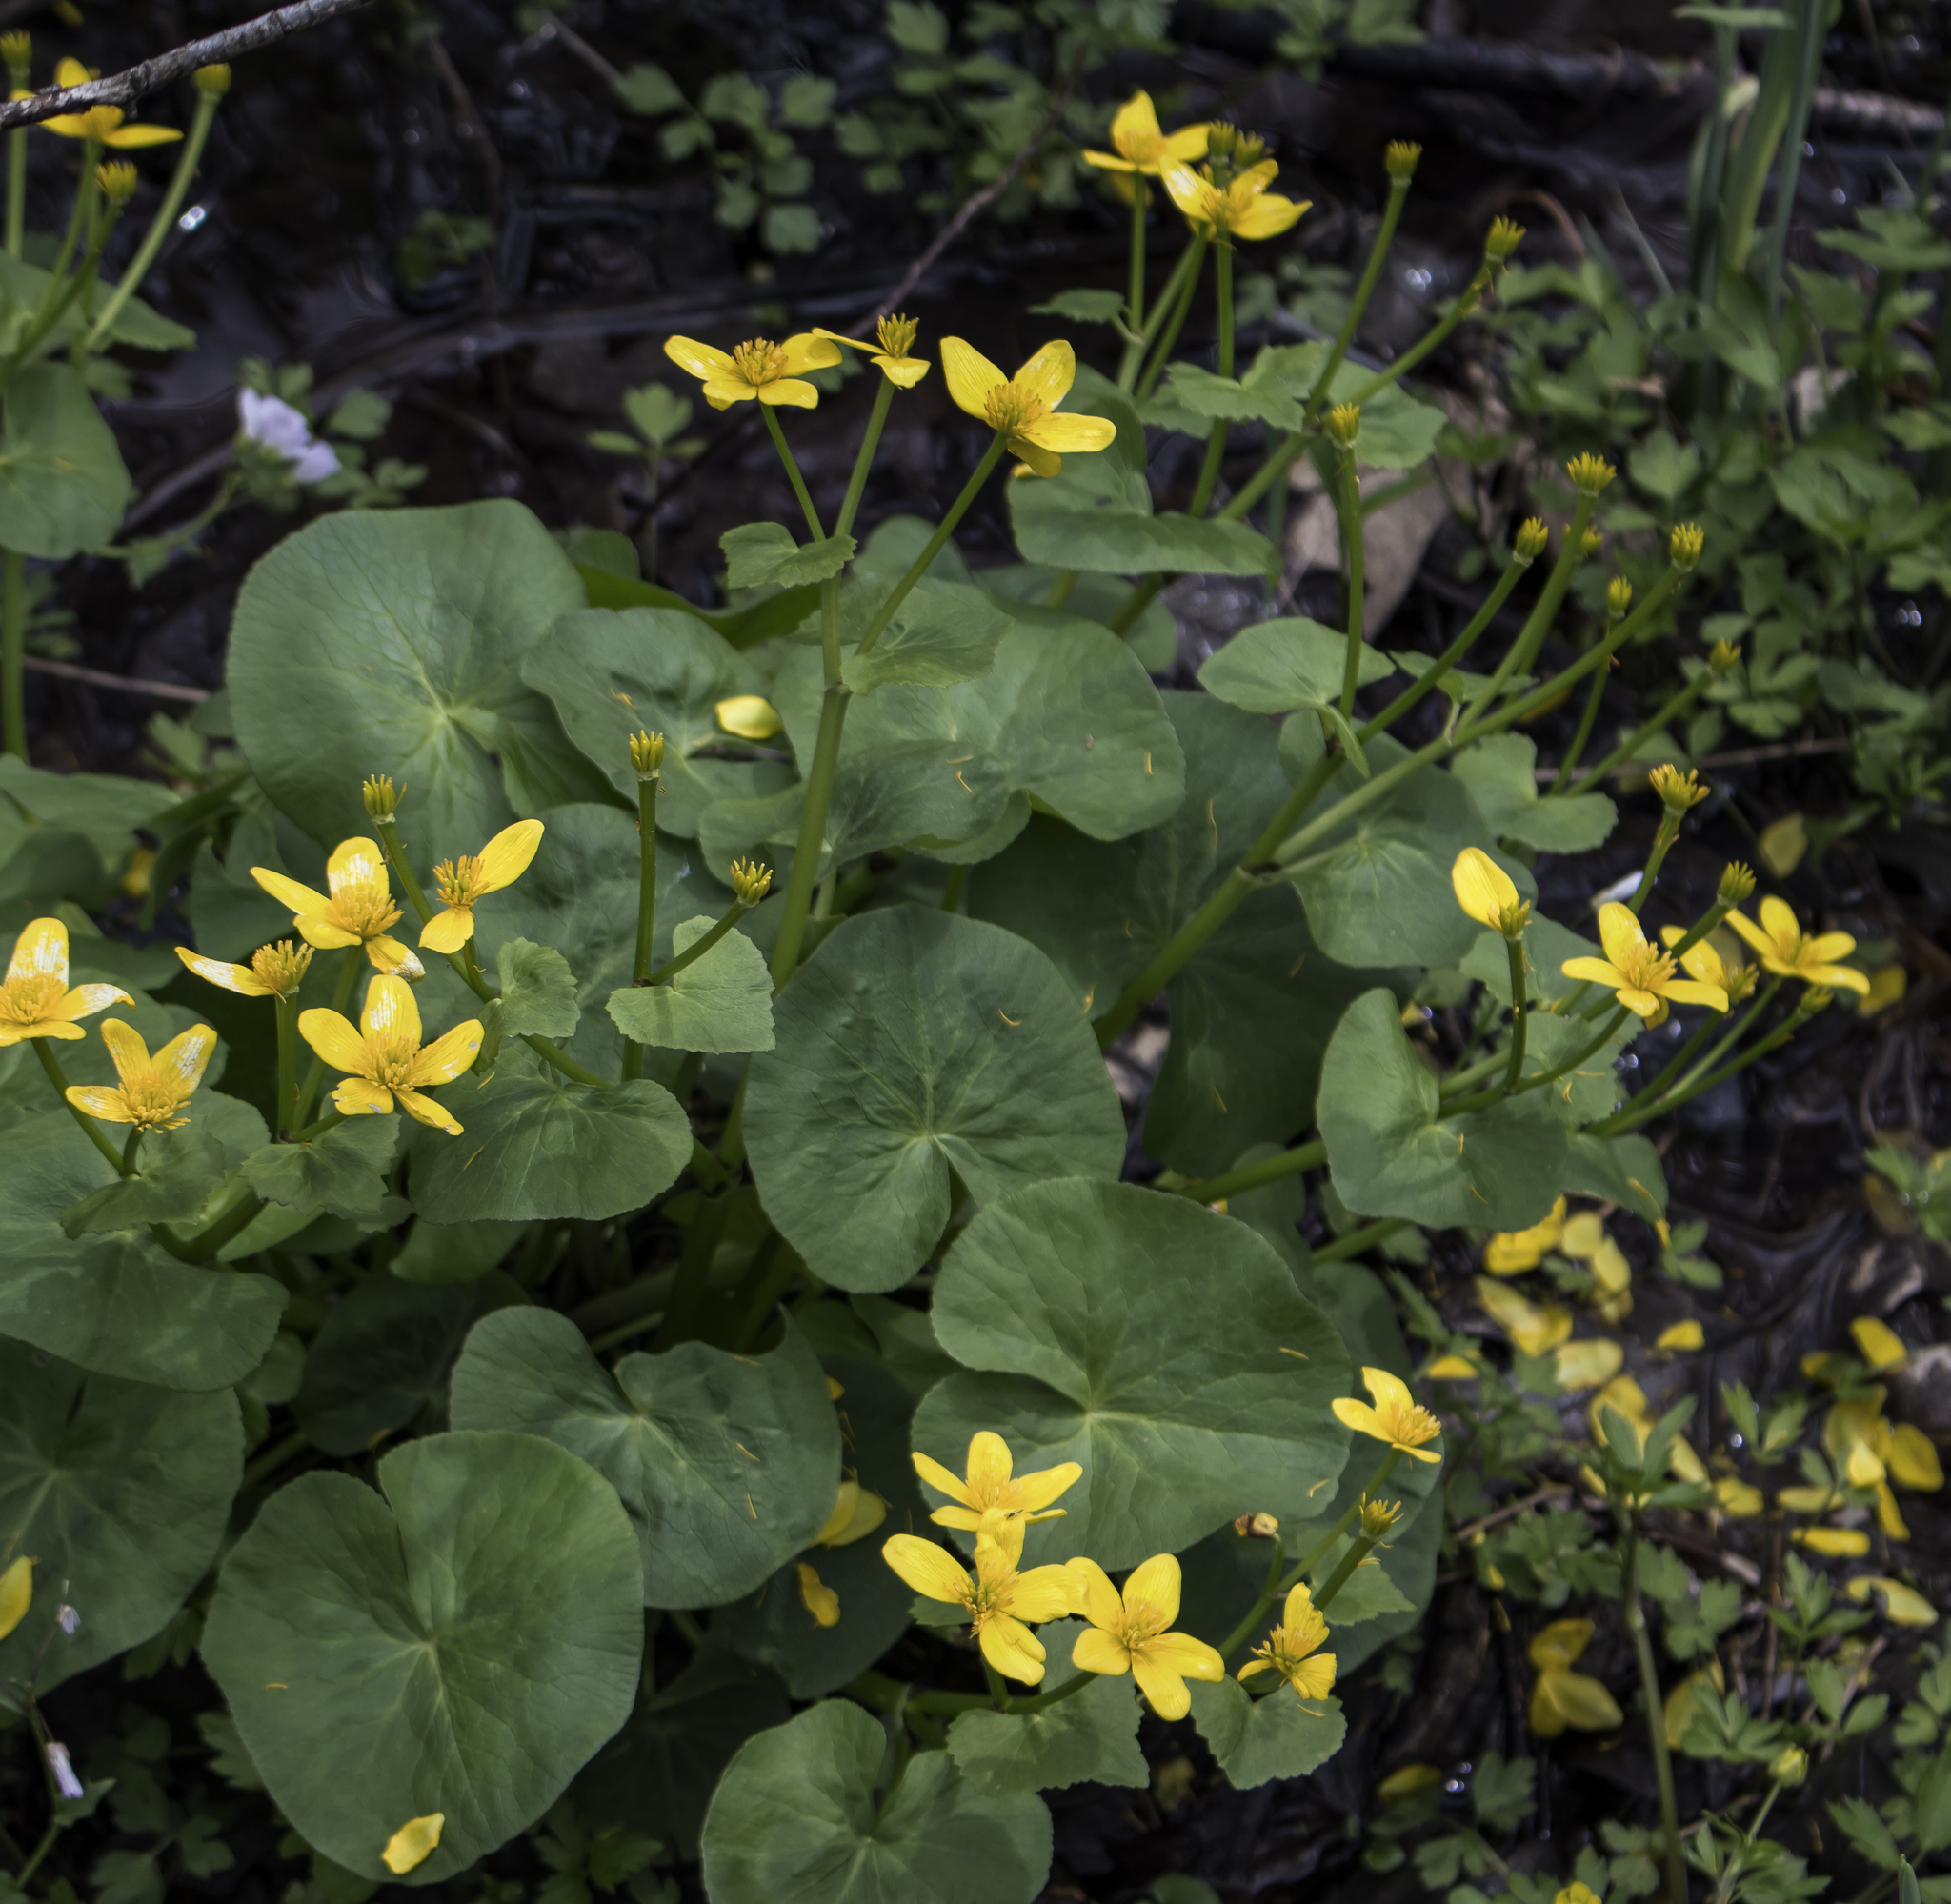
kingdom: Plantae
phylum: Tracheophyta
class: Magnoliopsida
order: Ranunculales
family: Ranunculaceae
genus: Caltha
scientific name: Caltha palustris
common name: Marsh marigold
